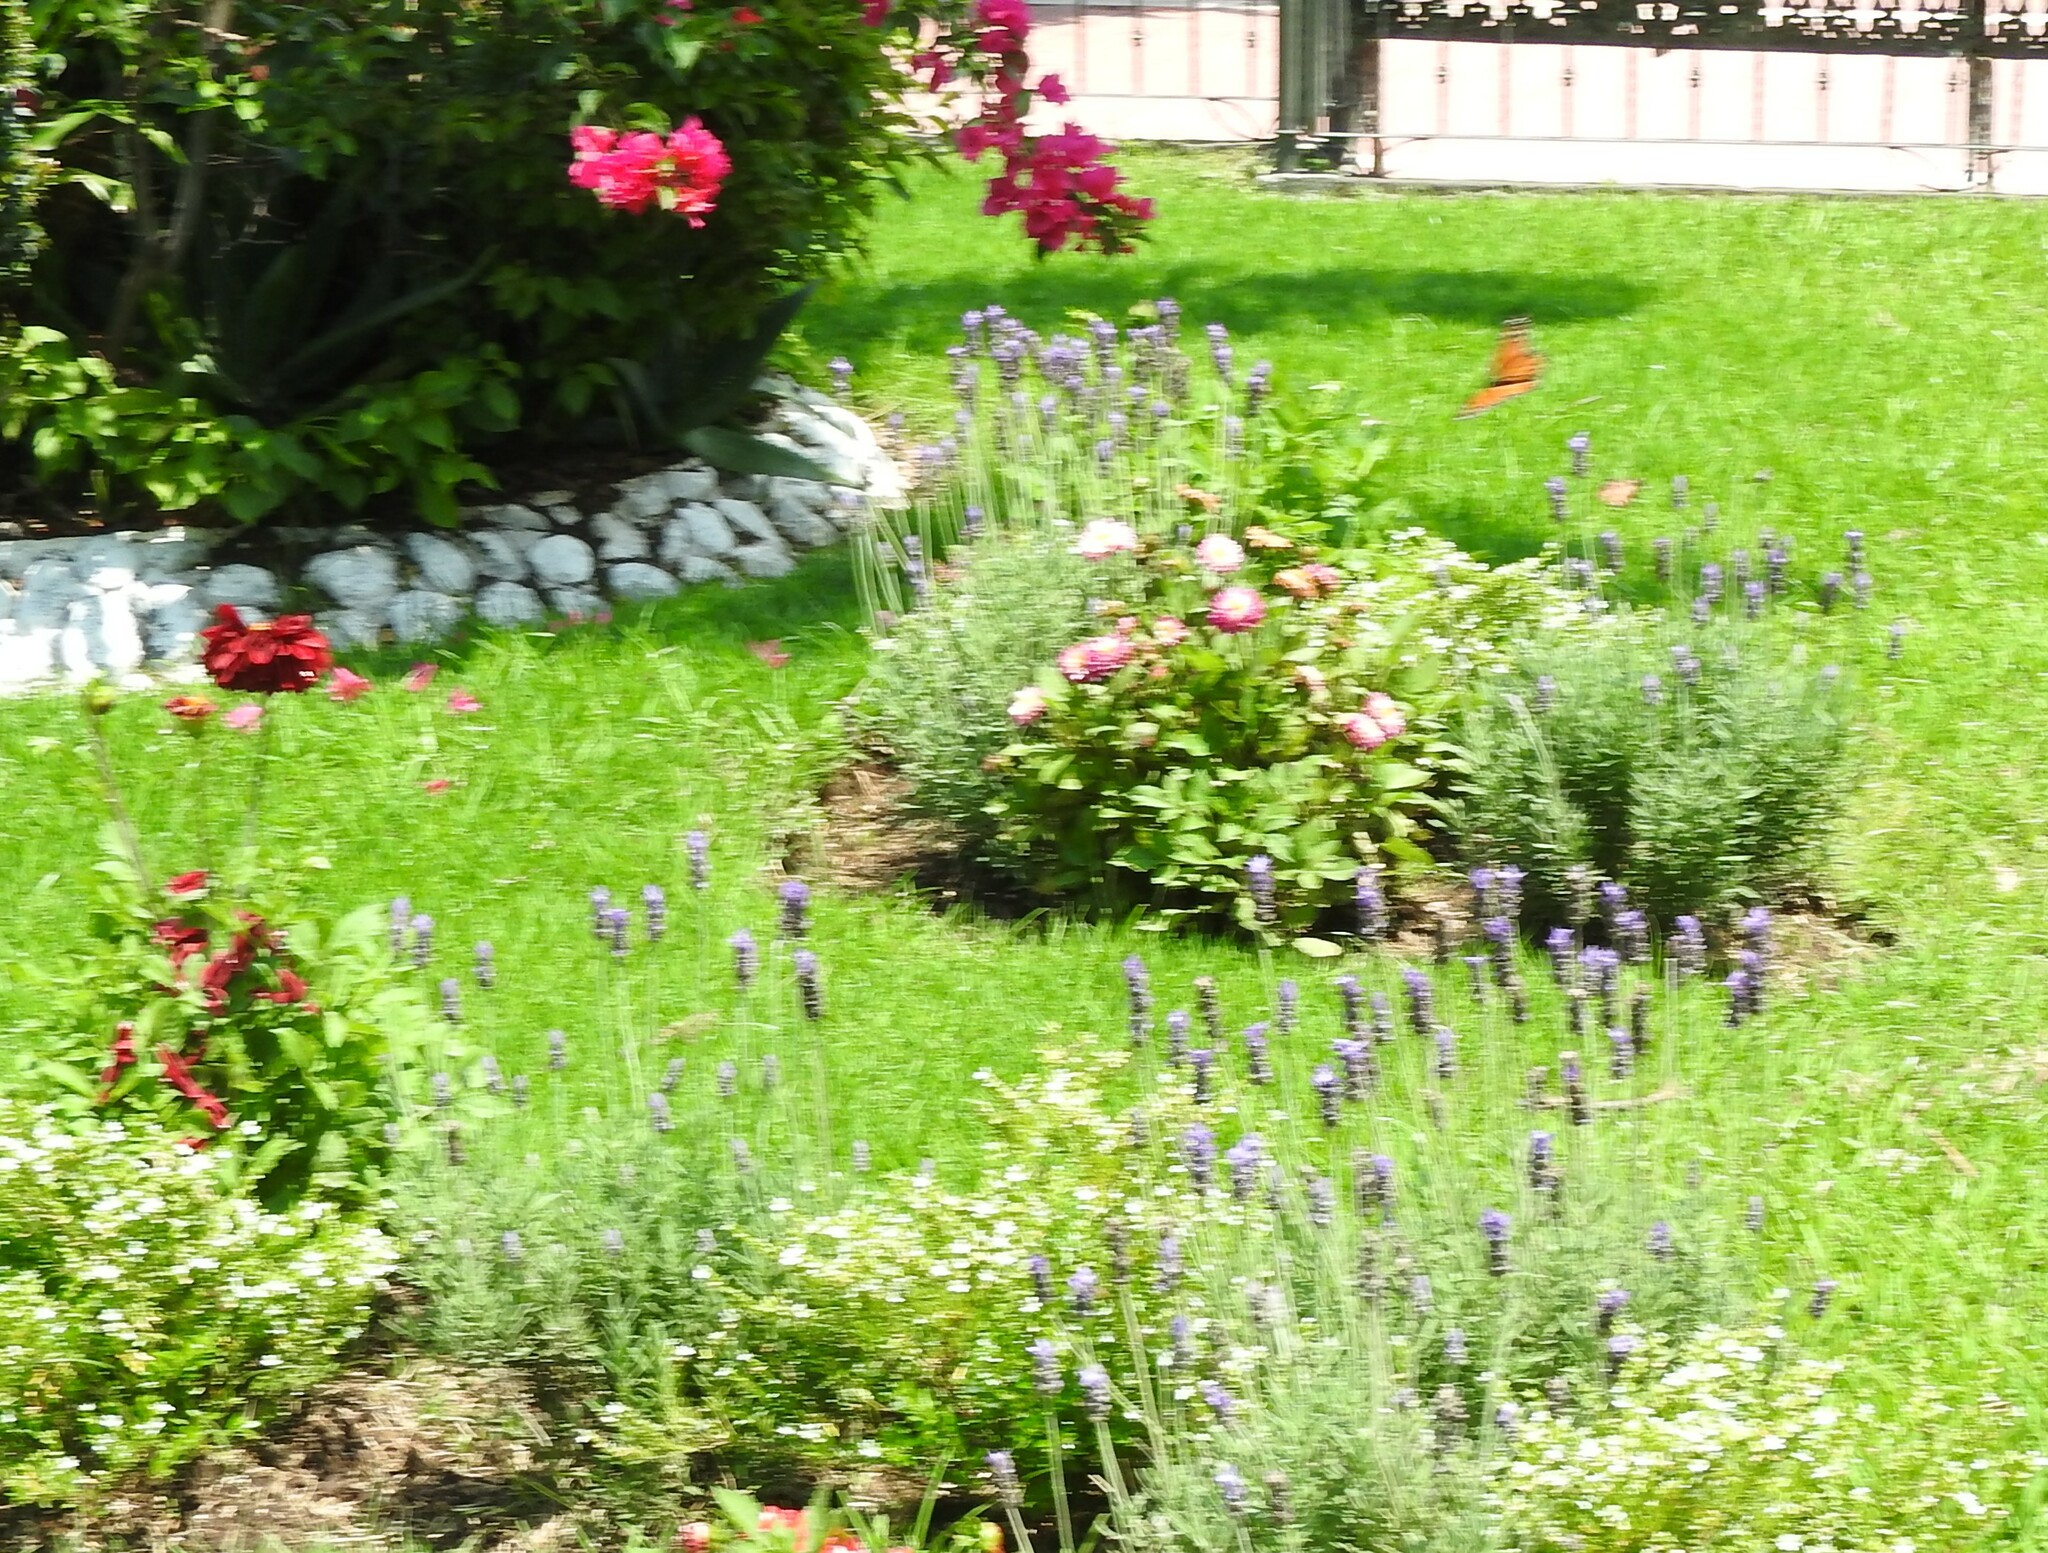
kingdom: Animalia
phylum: Arthropoda
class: Insecta
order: Lepidoptera
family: Nymphalidae
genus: Danaus
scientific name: Danaus plexippus
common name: Monarch
